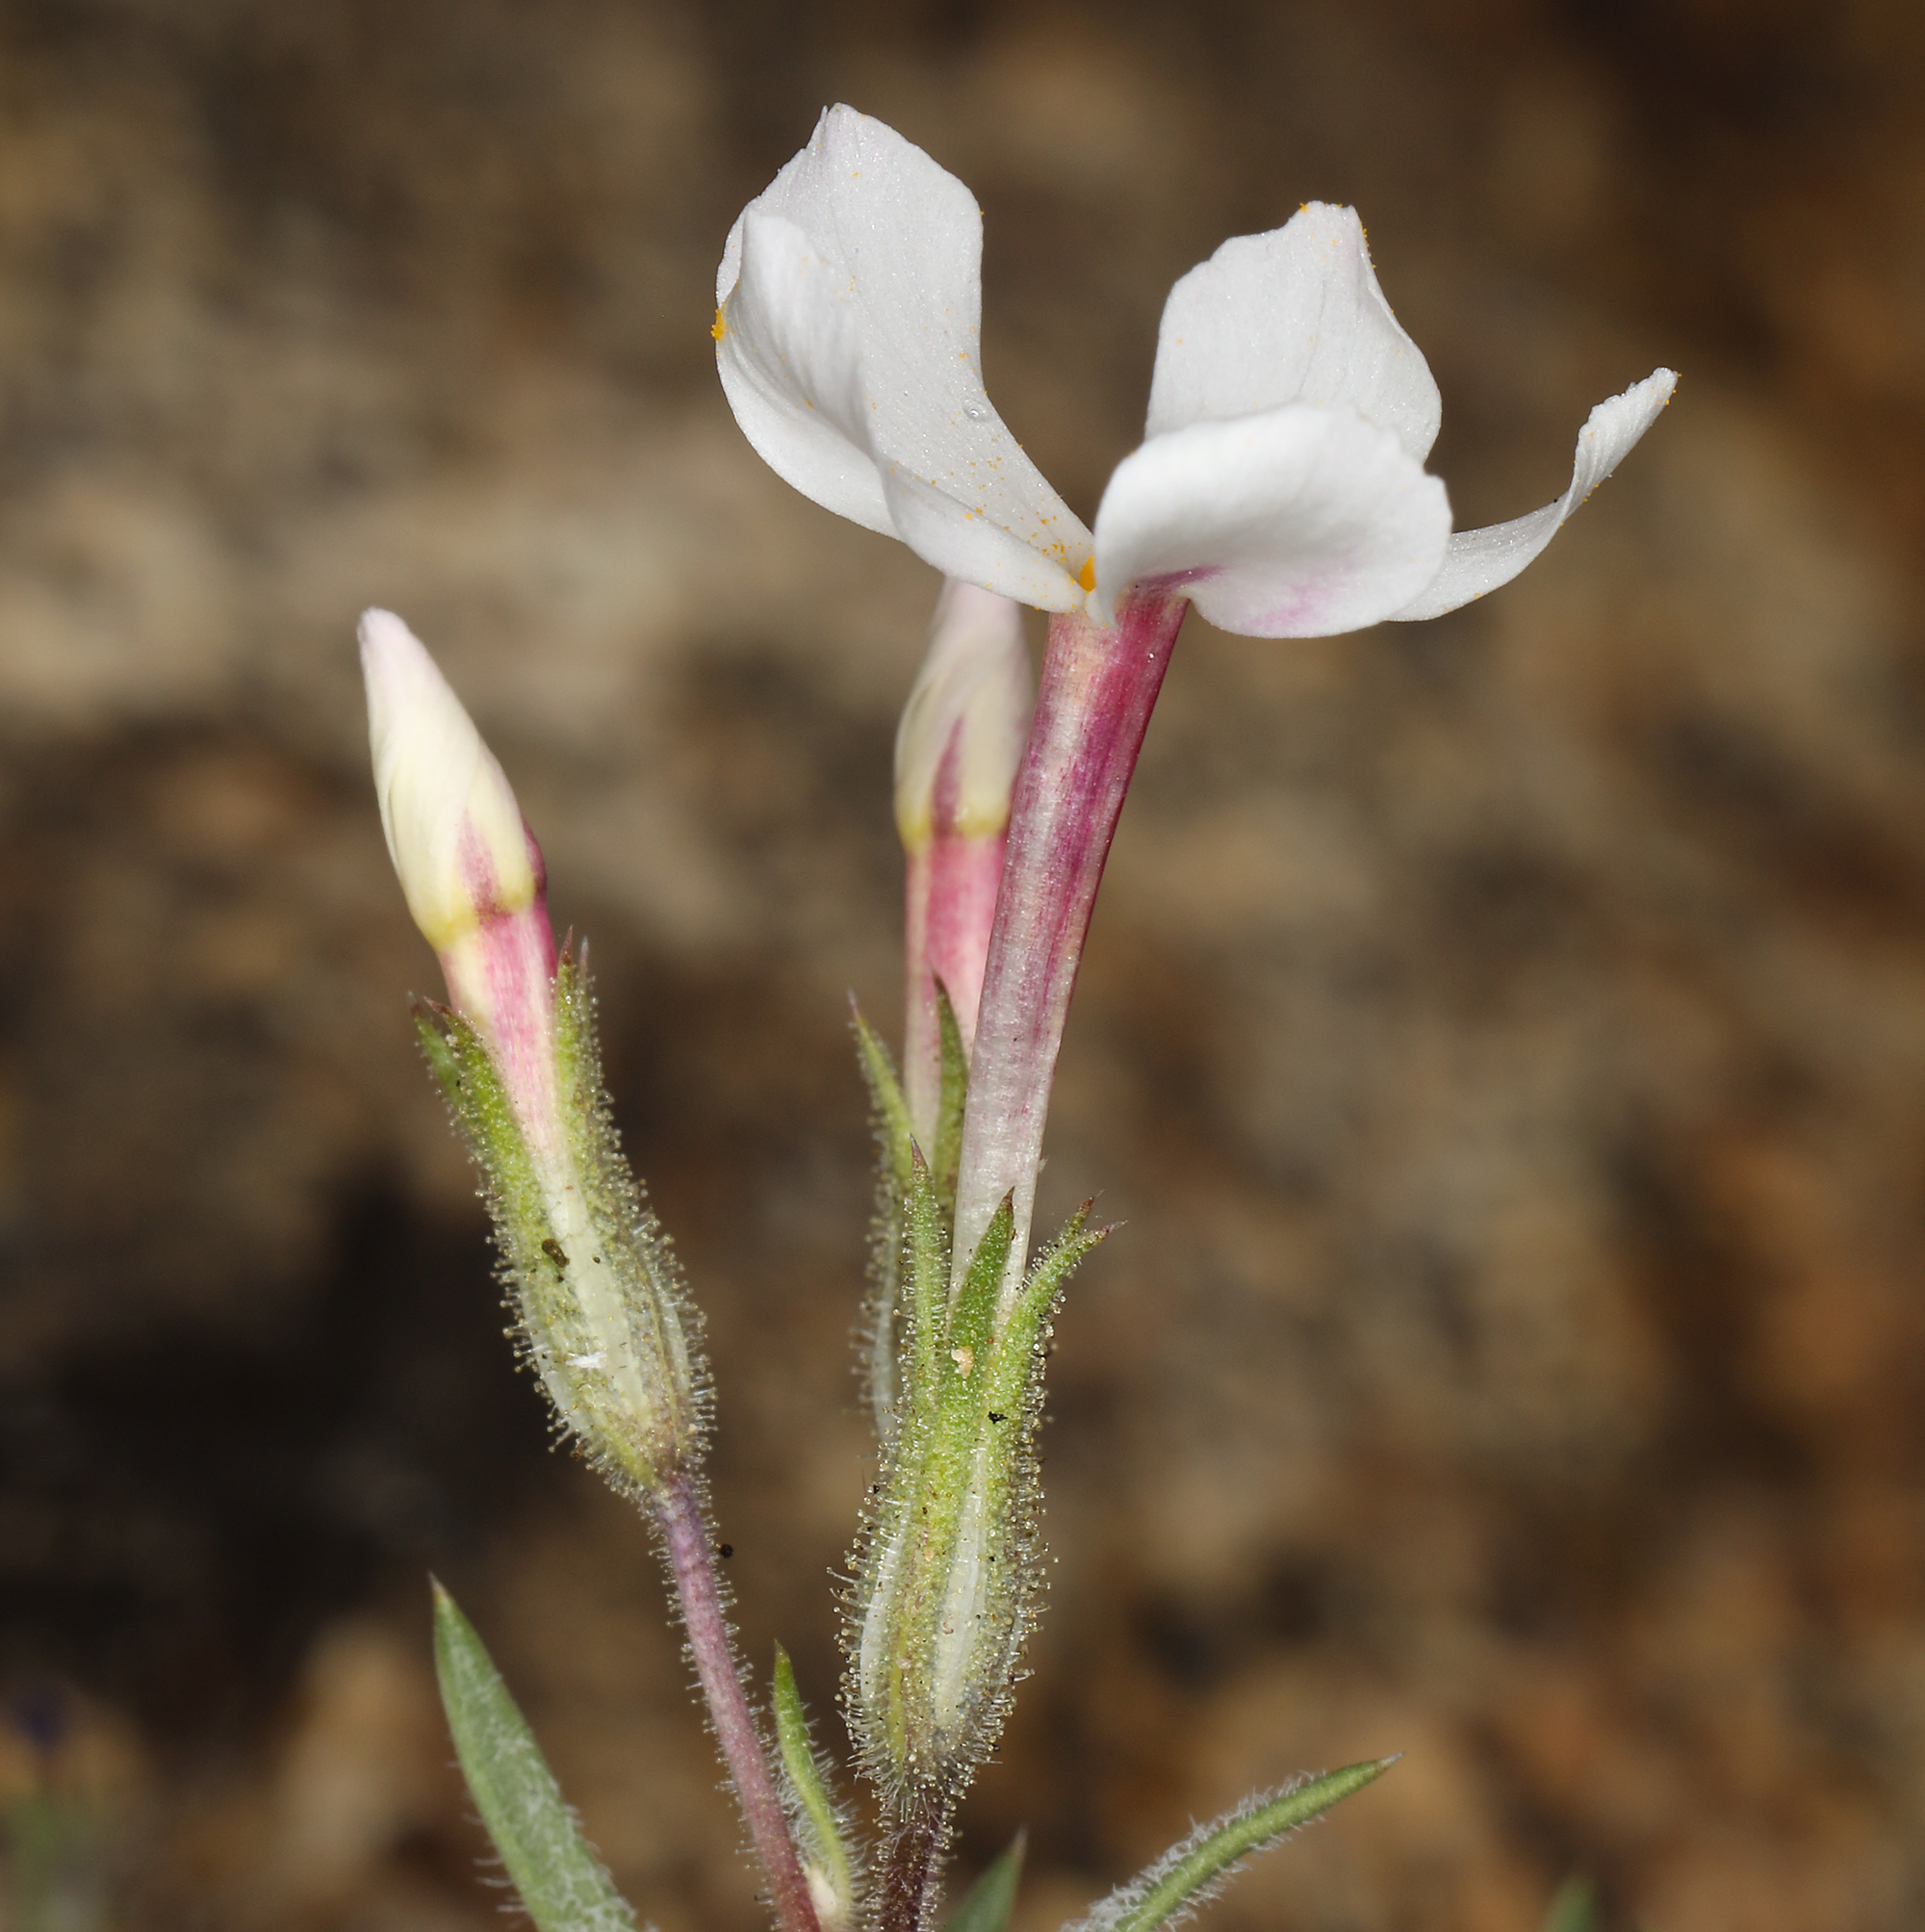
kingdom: Plantae
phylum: Tracheophyta
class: Magnoliopsida
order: Ericales
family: Polemoniaceae
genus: Phlox
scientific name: Phlox longifolia
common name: Longleaf phlox
